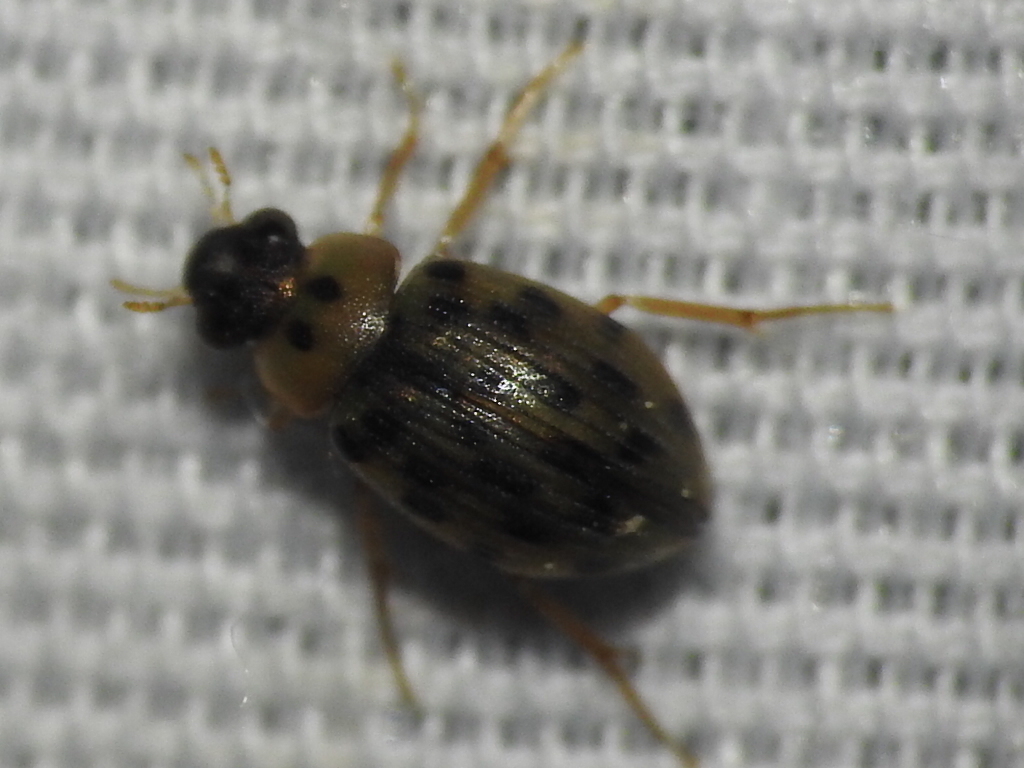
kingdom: Animalia
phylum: Arthropoda
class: Insecta
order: Coleoptera
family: Hydrophilidae
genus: Berosus
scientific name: Berosus pantherinus
